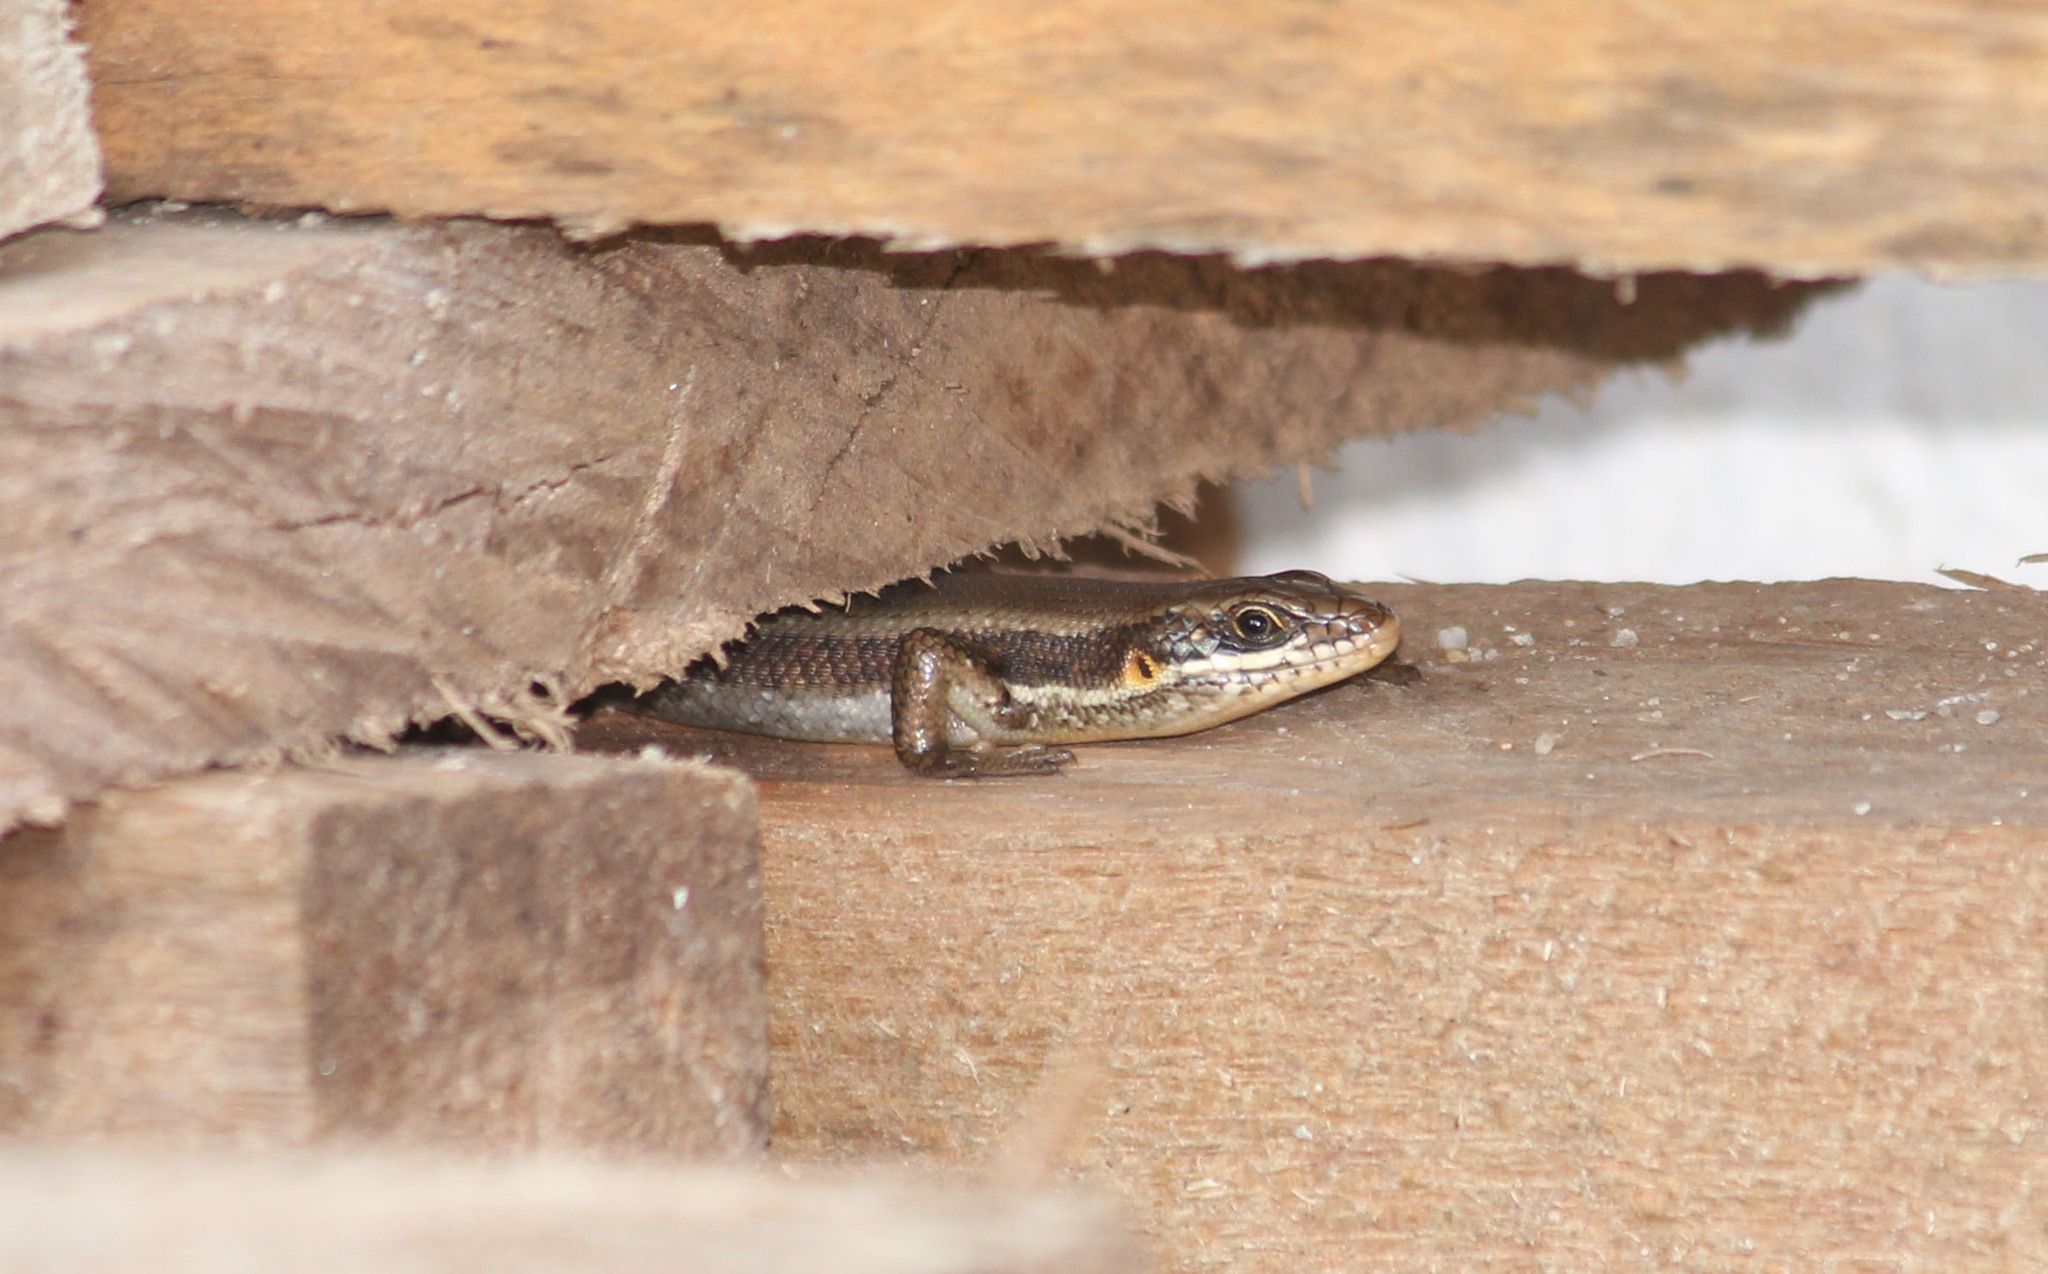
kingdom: Animalia
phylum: Chordata
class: Squamata
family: Scincidae
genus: Trachylepis
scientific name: Trachylepis maculilabris
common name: Speckle-lipped mabuya
